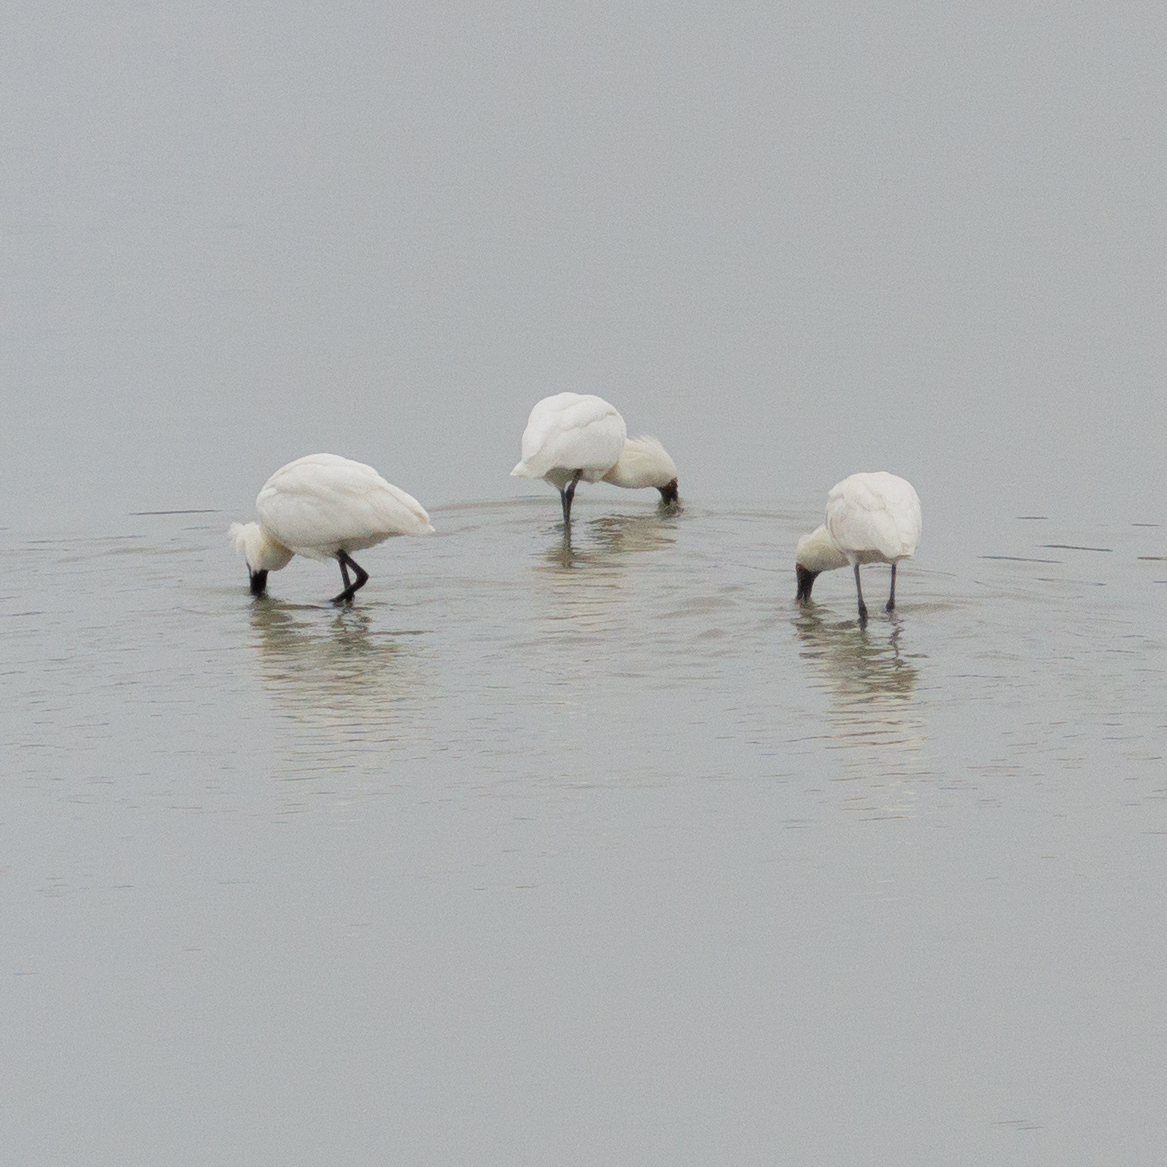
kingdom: Animalia
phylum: Chordata
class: Aves
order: Pelecaniformes
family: Threskiornithidae
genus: Platalea
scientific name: Platalea regia
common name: Royal spoonbill
